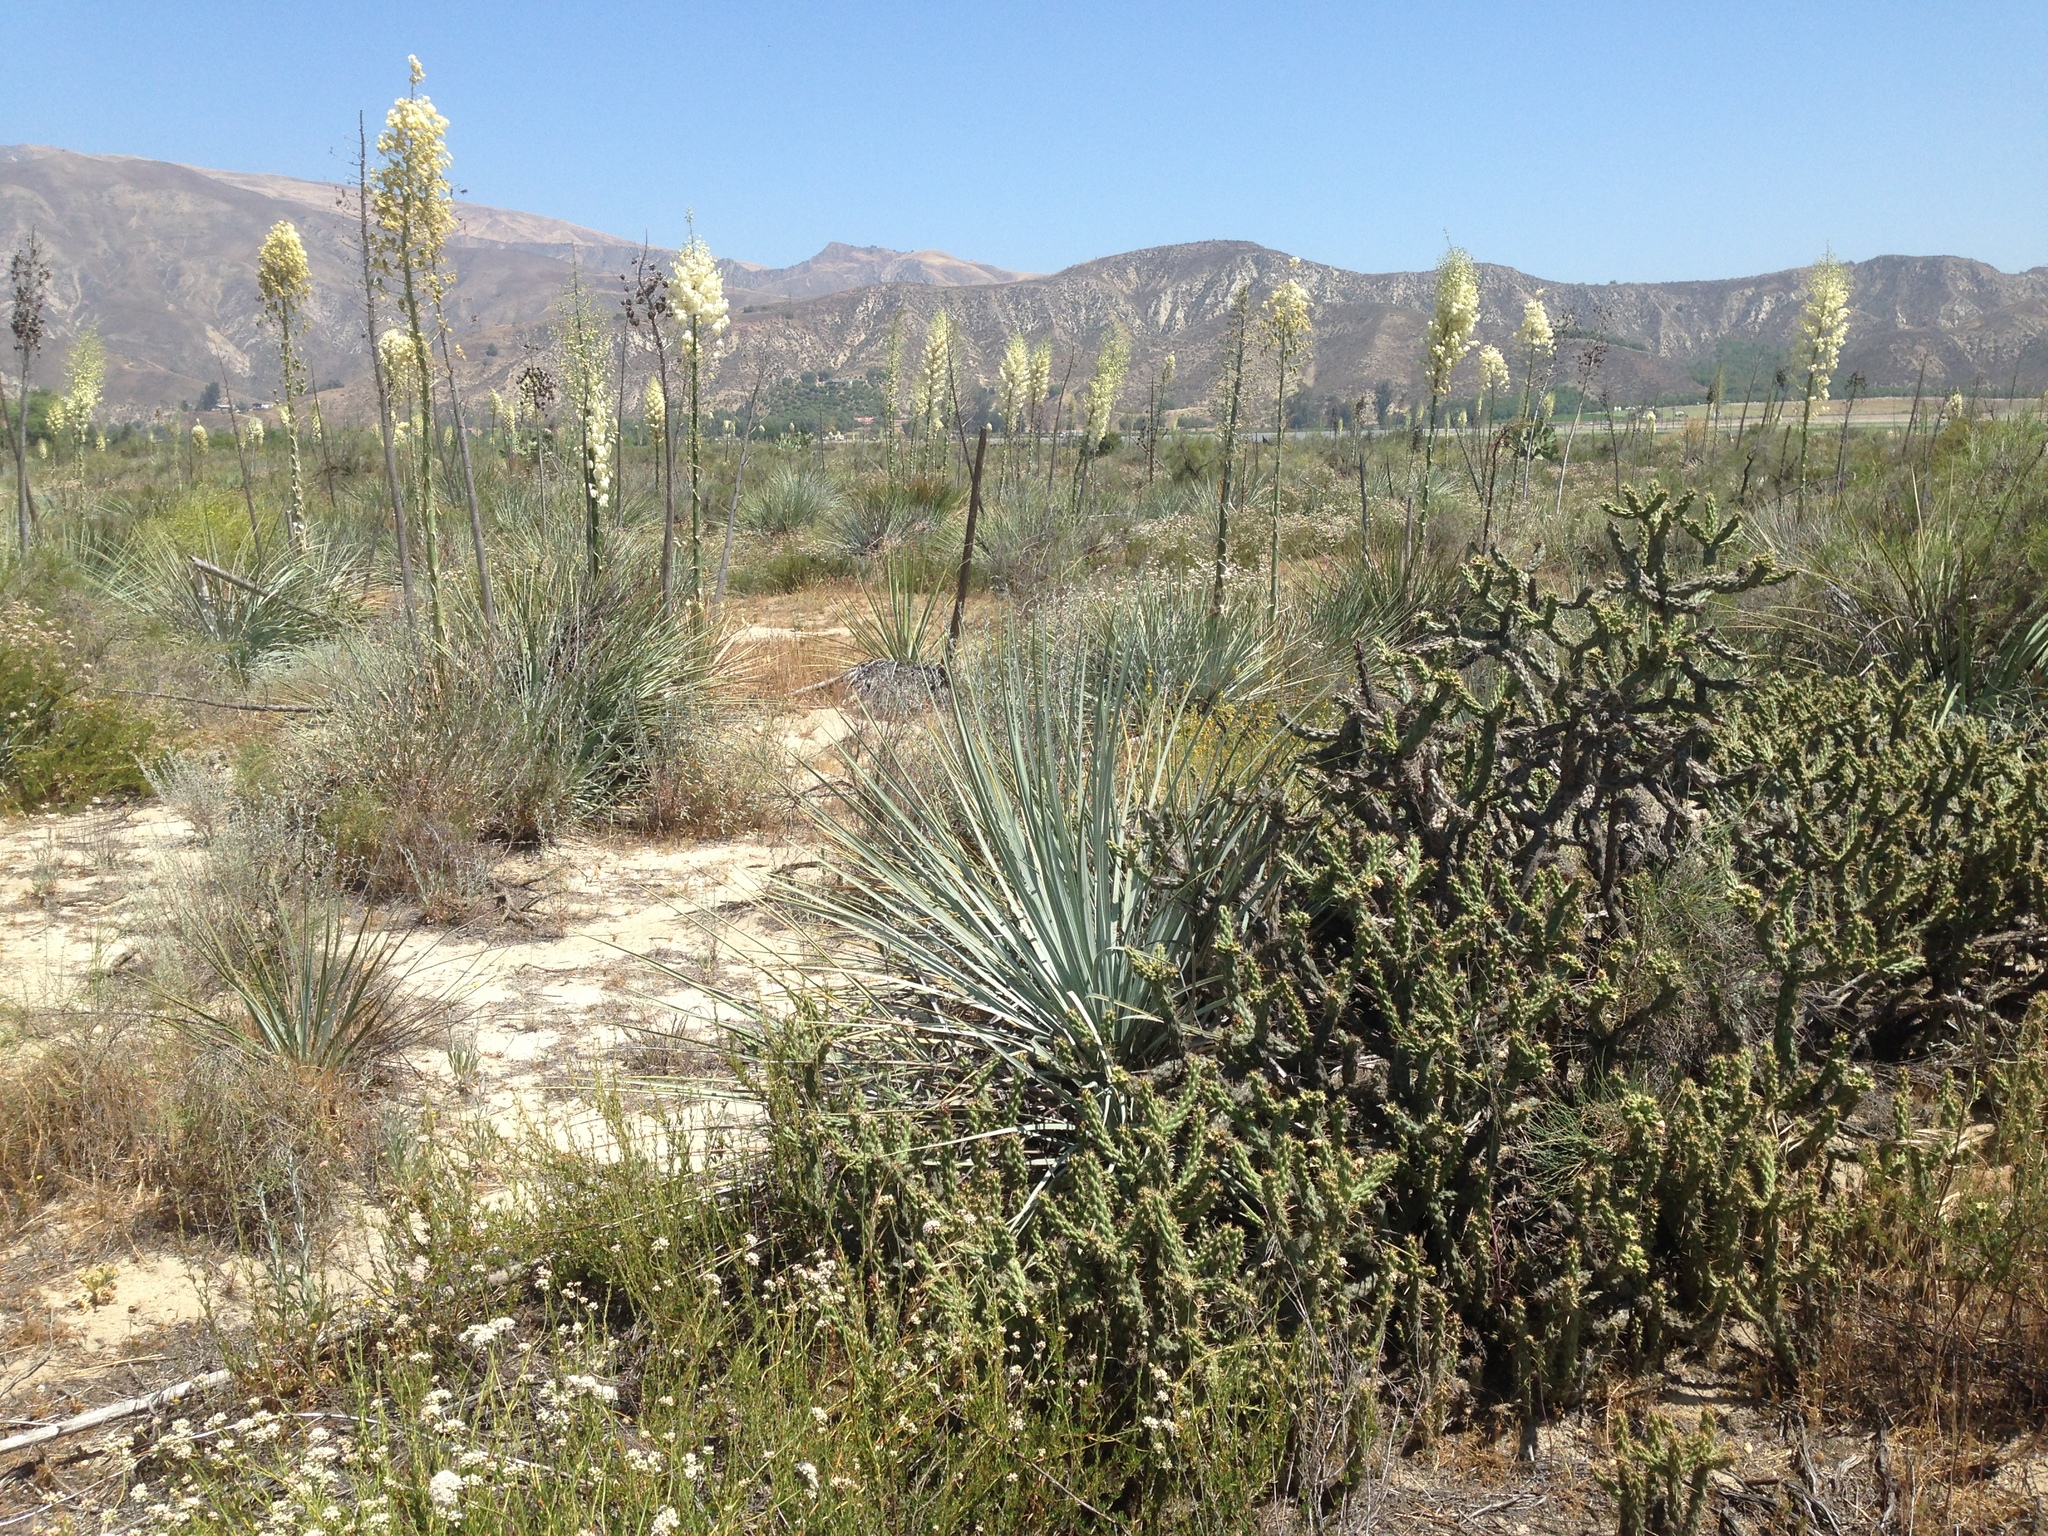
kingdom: Plantae
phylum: Tracheophyta
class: Liliopsida
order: Asparagales
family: Asparagaceae
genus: Hesperoyucca
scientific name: Hesperoyucca whipplei
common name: Our lord's-candle
